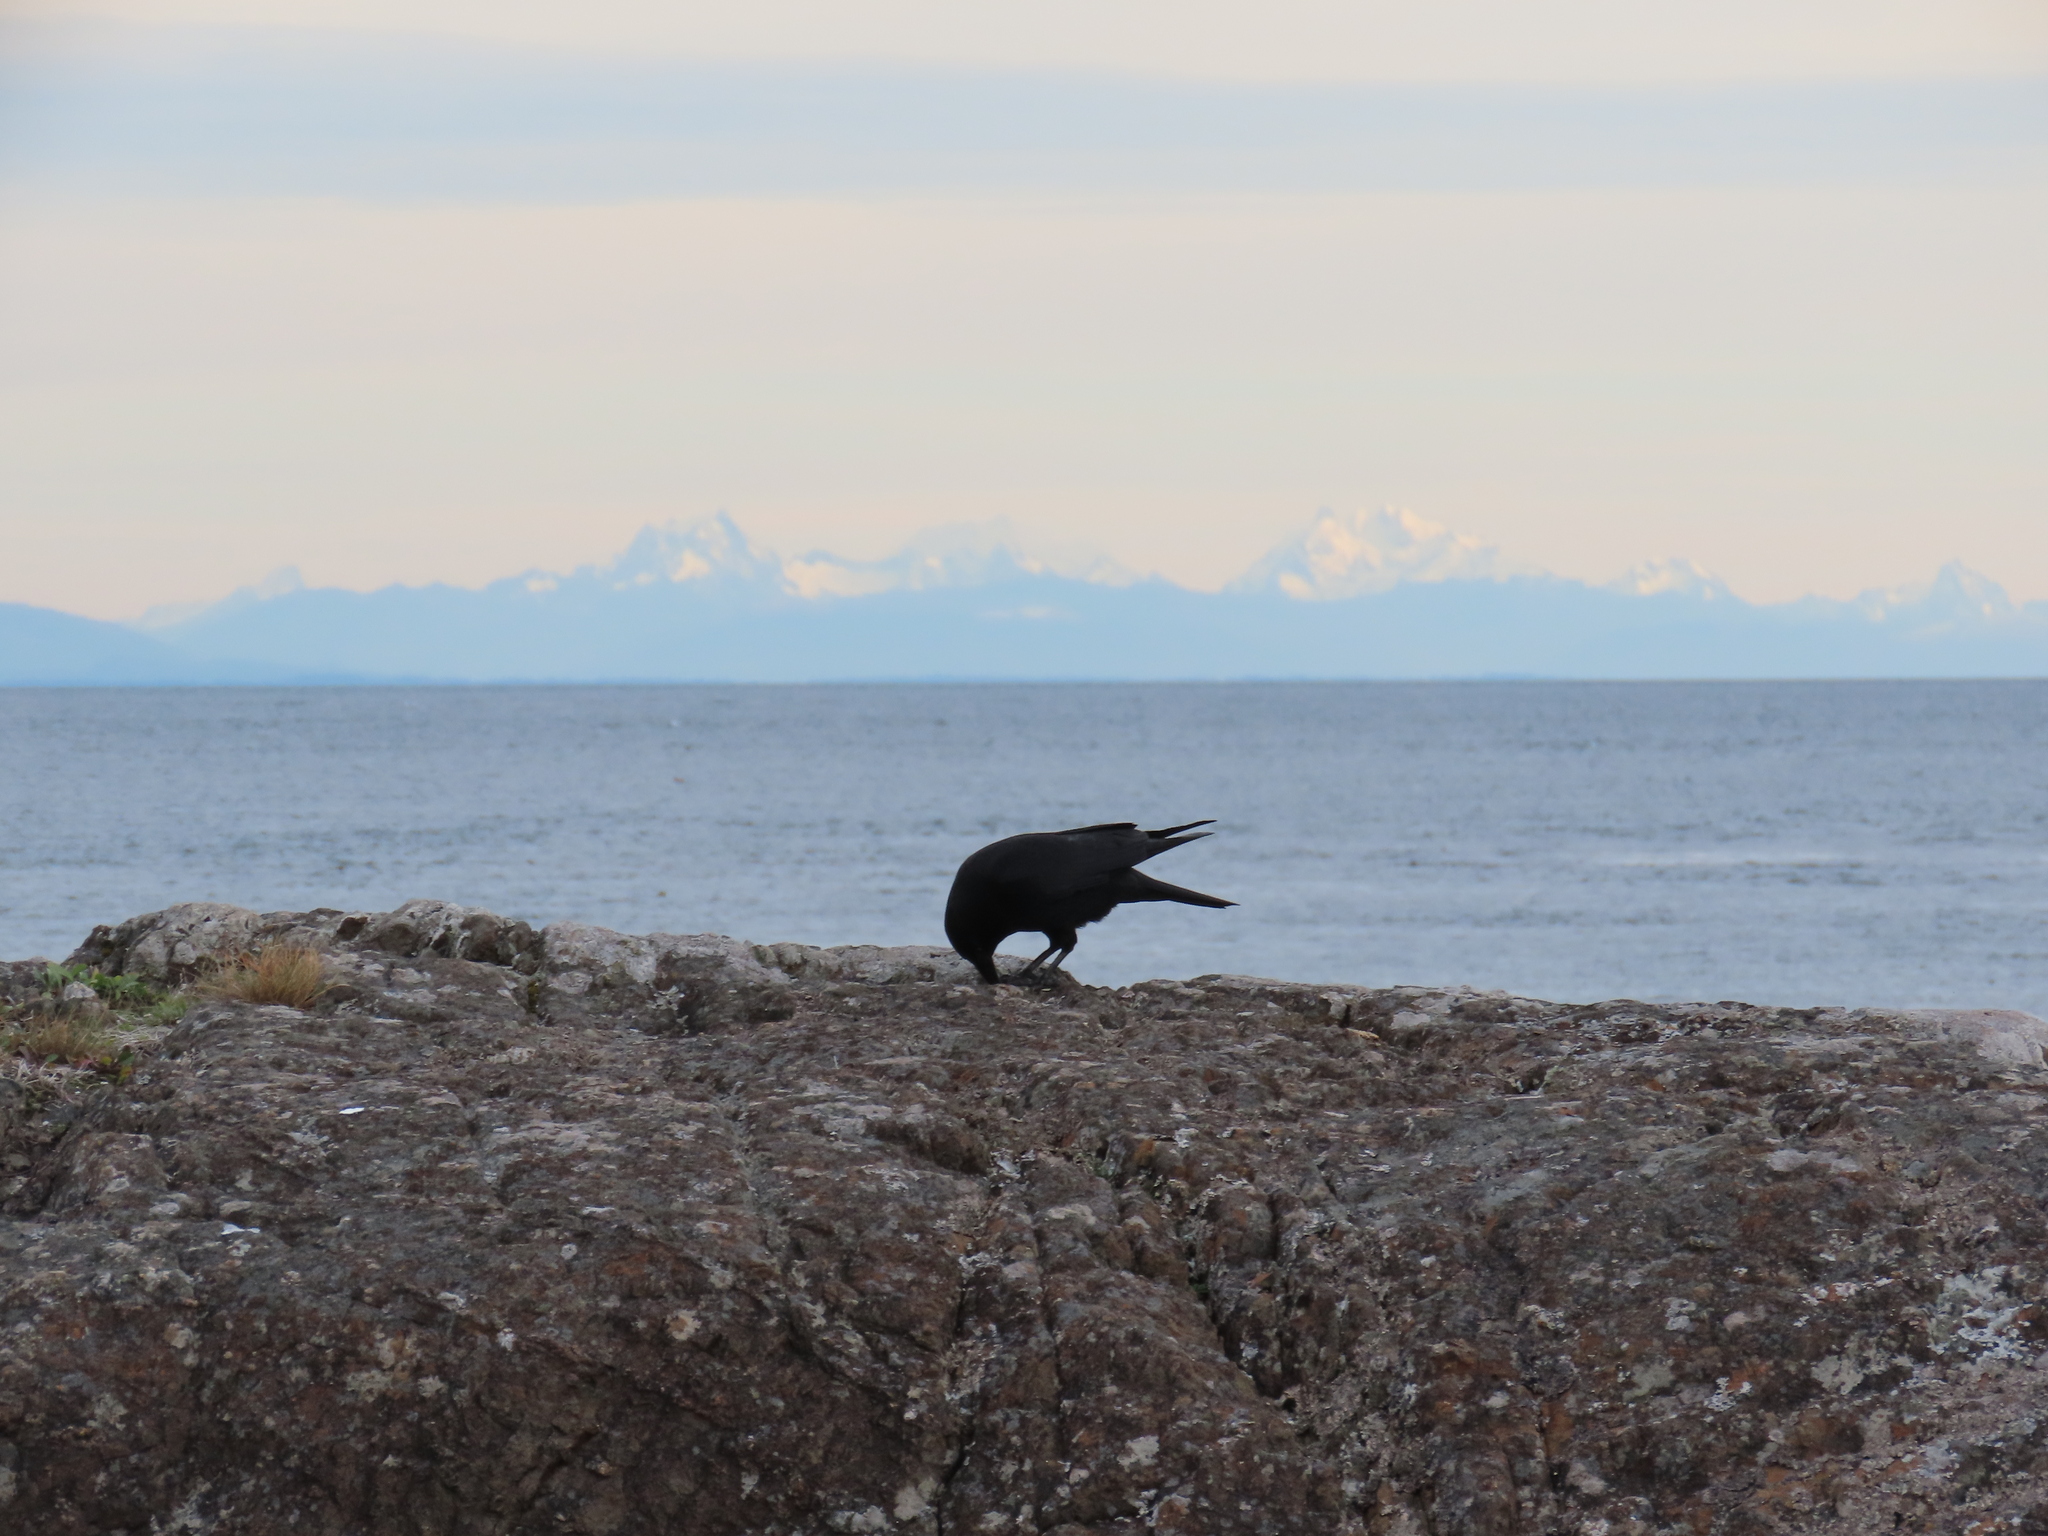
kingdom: Animalia
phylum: Chordata
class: Aves
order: Passeriformes
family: Corvidae
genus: Corvus
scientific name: Corvus brachyrhynchos
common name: American crow
